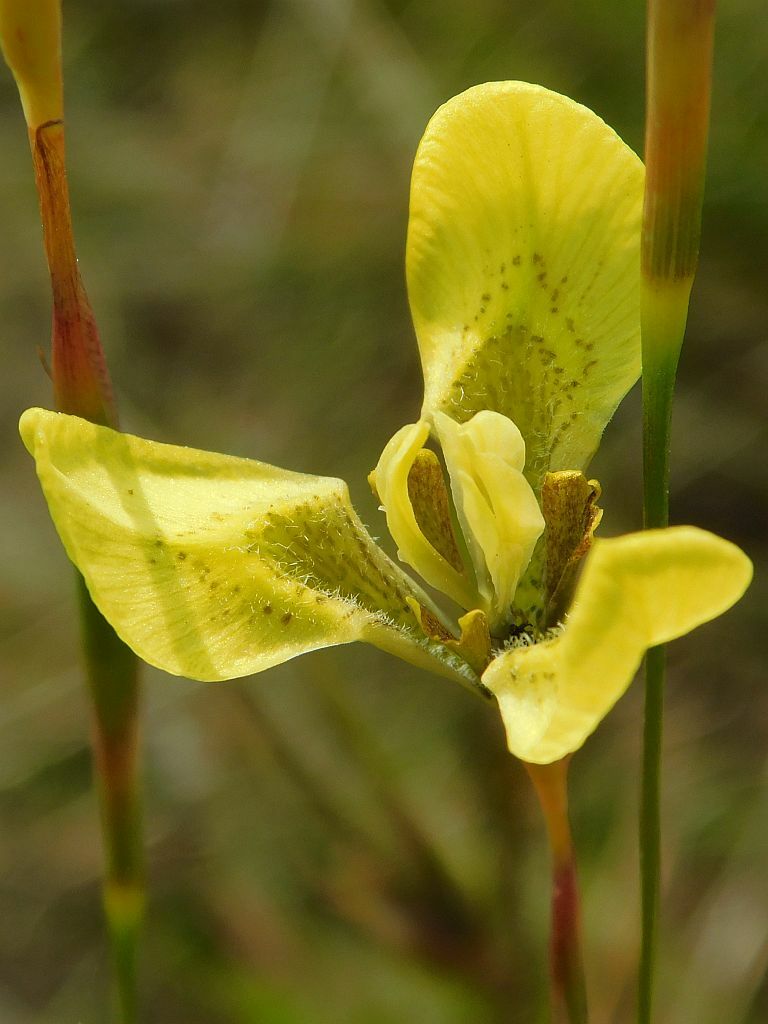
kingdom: Plantae
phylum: Tracheophyta
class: Liliopsida
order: Asparagales
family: Iridaceae
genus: Moraea
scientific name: Moraea bellendenii
